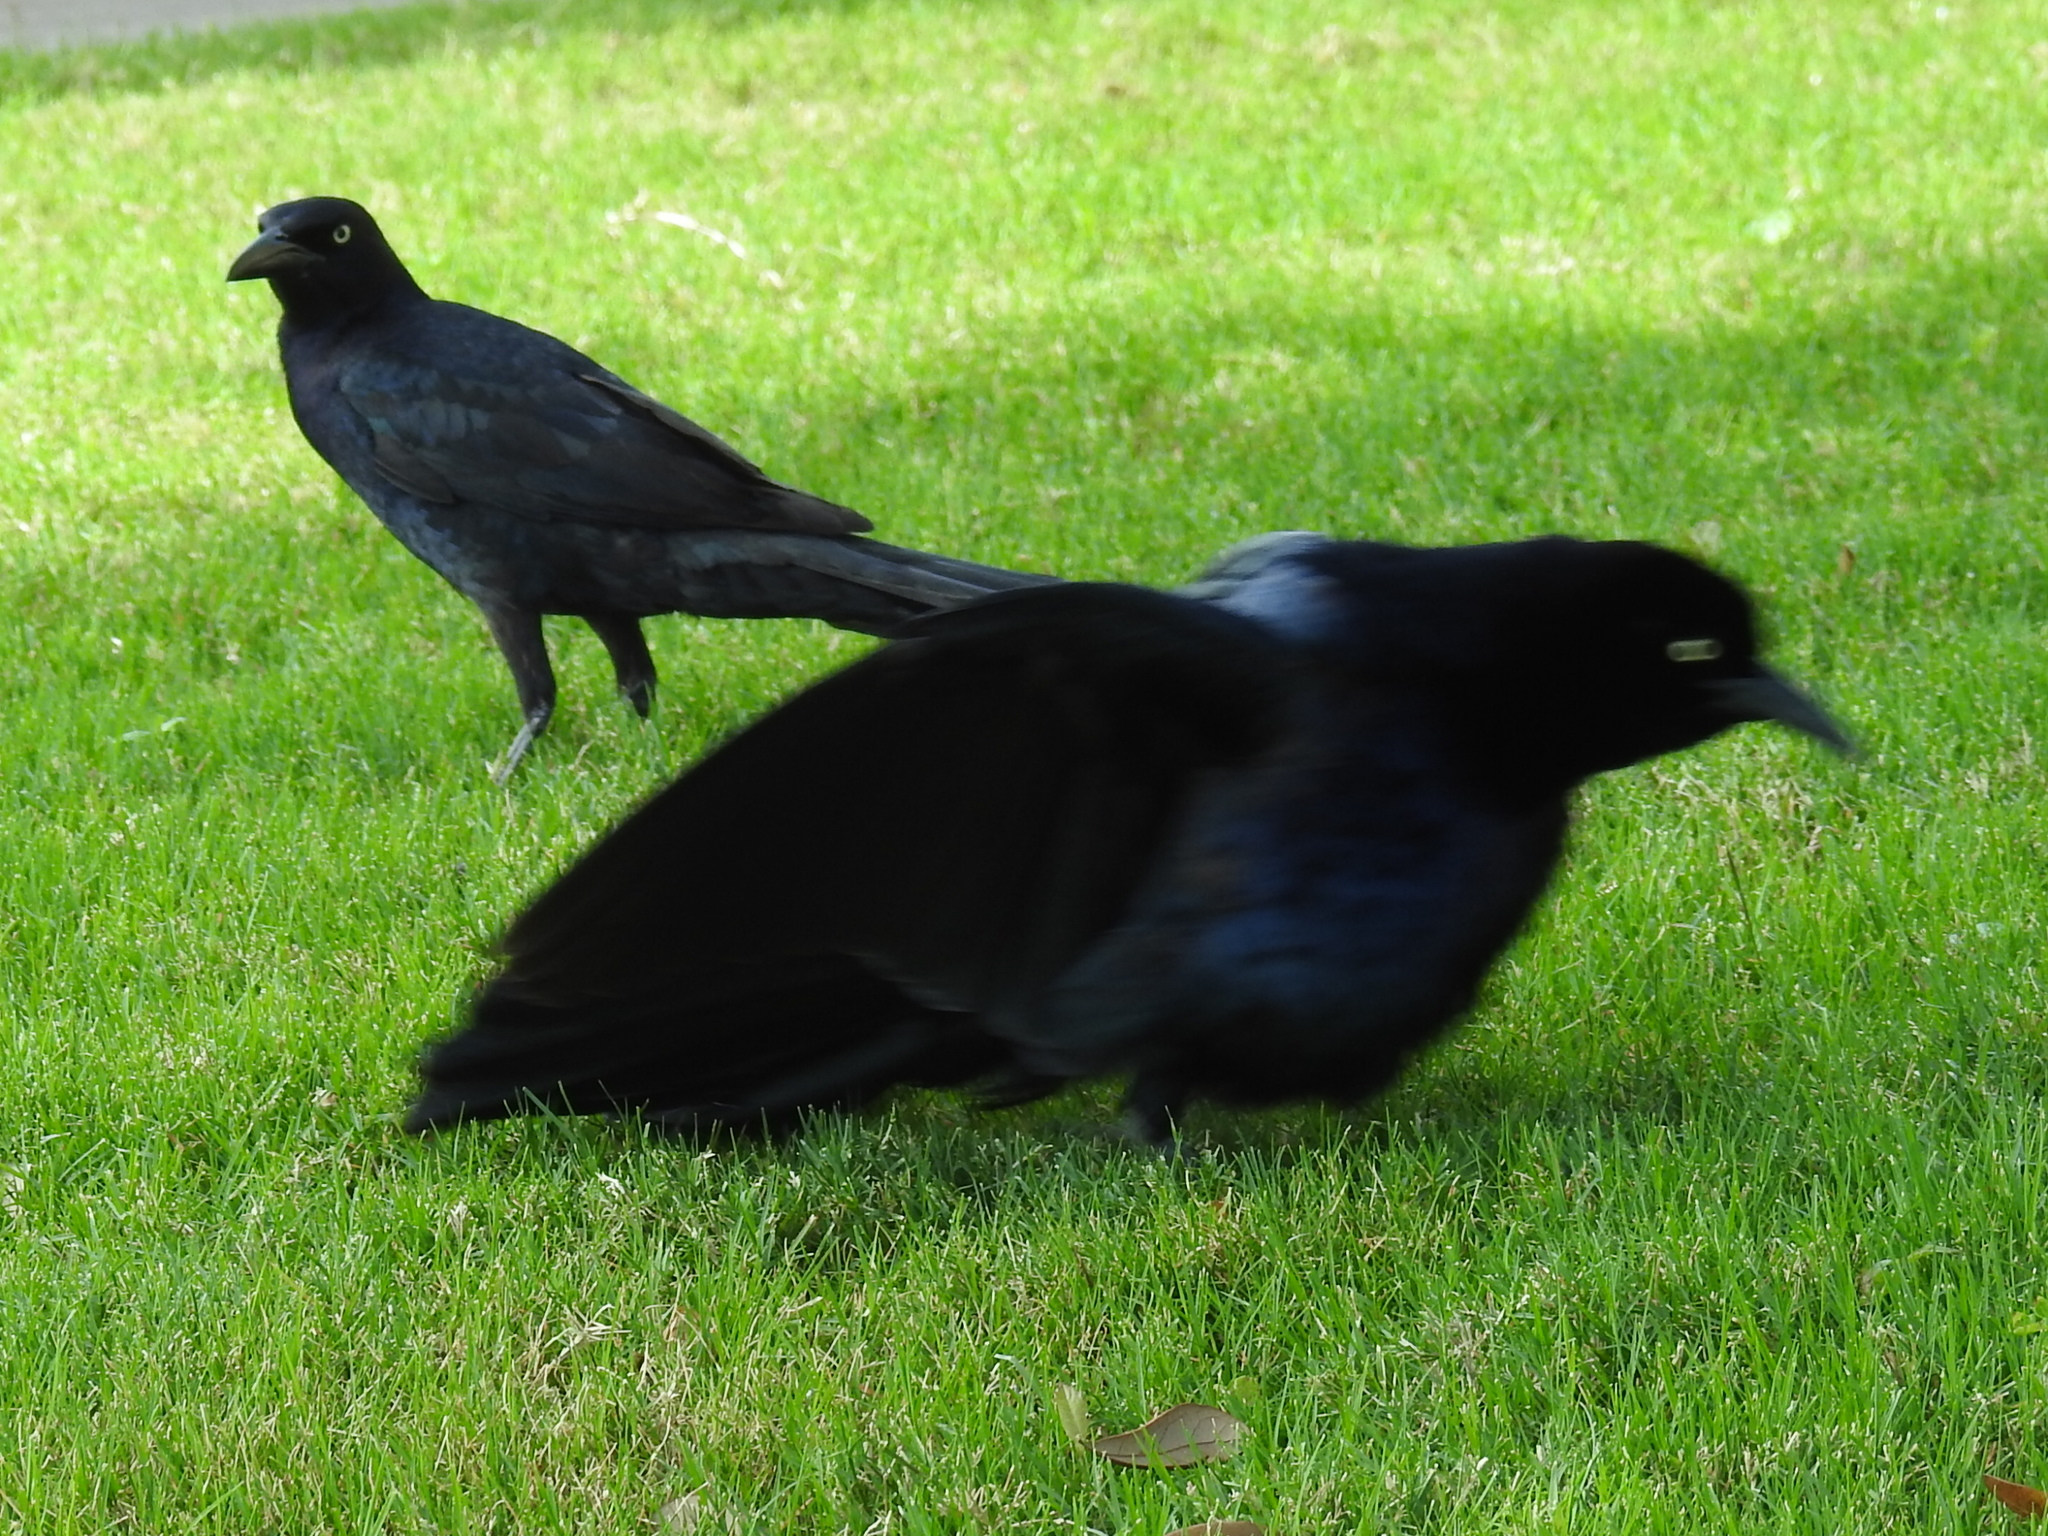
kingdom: Animalia
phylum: Chordata
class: Aves
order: Passeriformes
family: Icteridae
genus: Quiscalus
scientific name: Quiscalus mexicanus
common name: Great-tailed grackle
